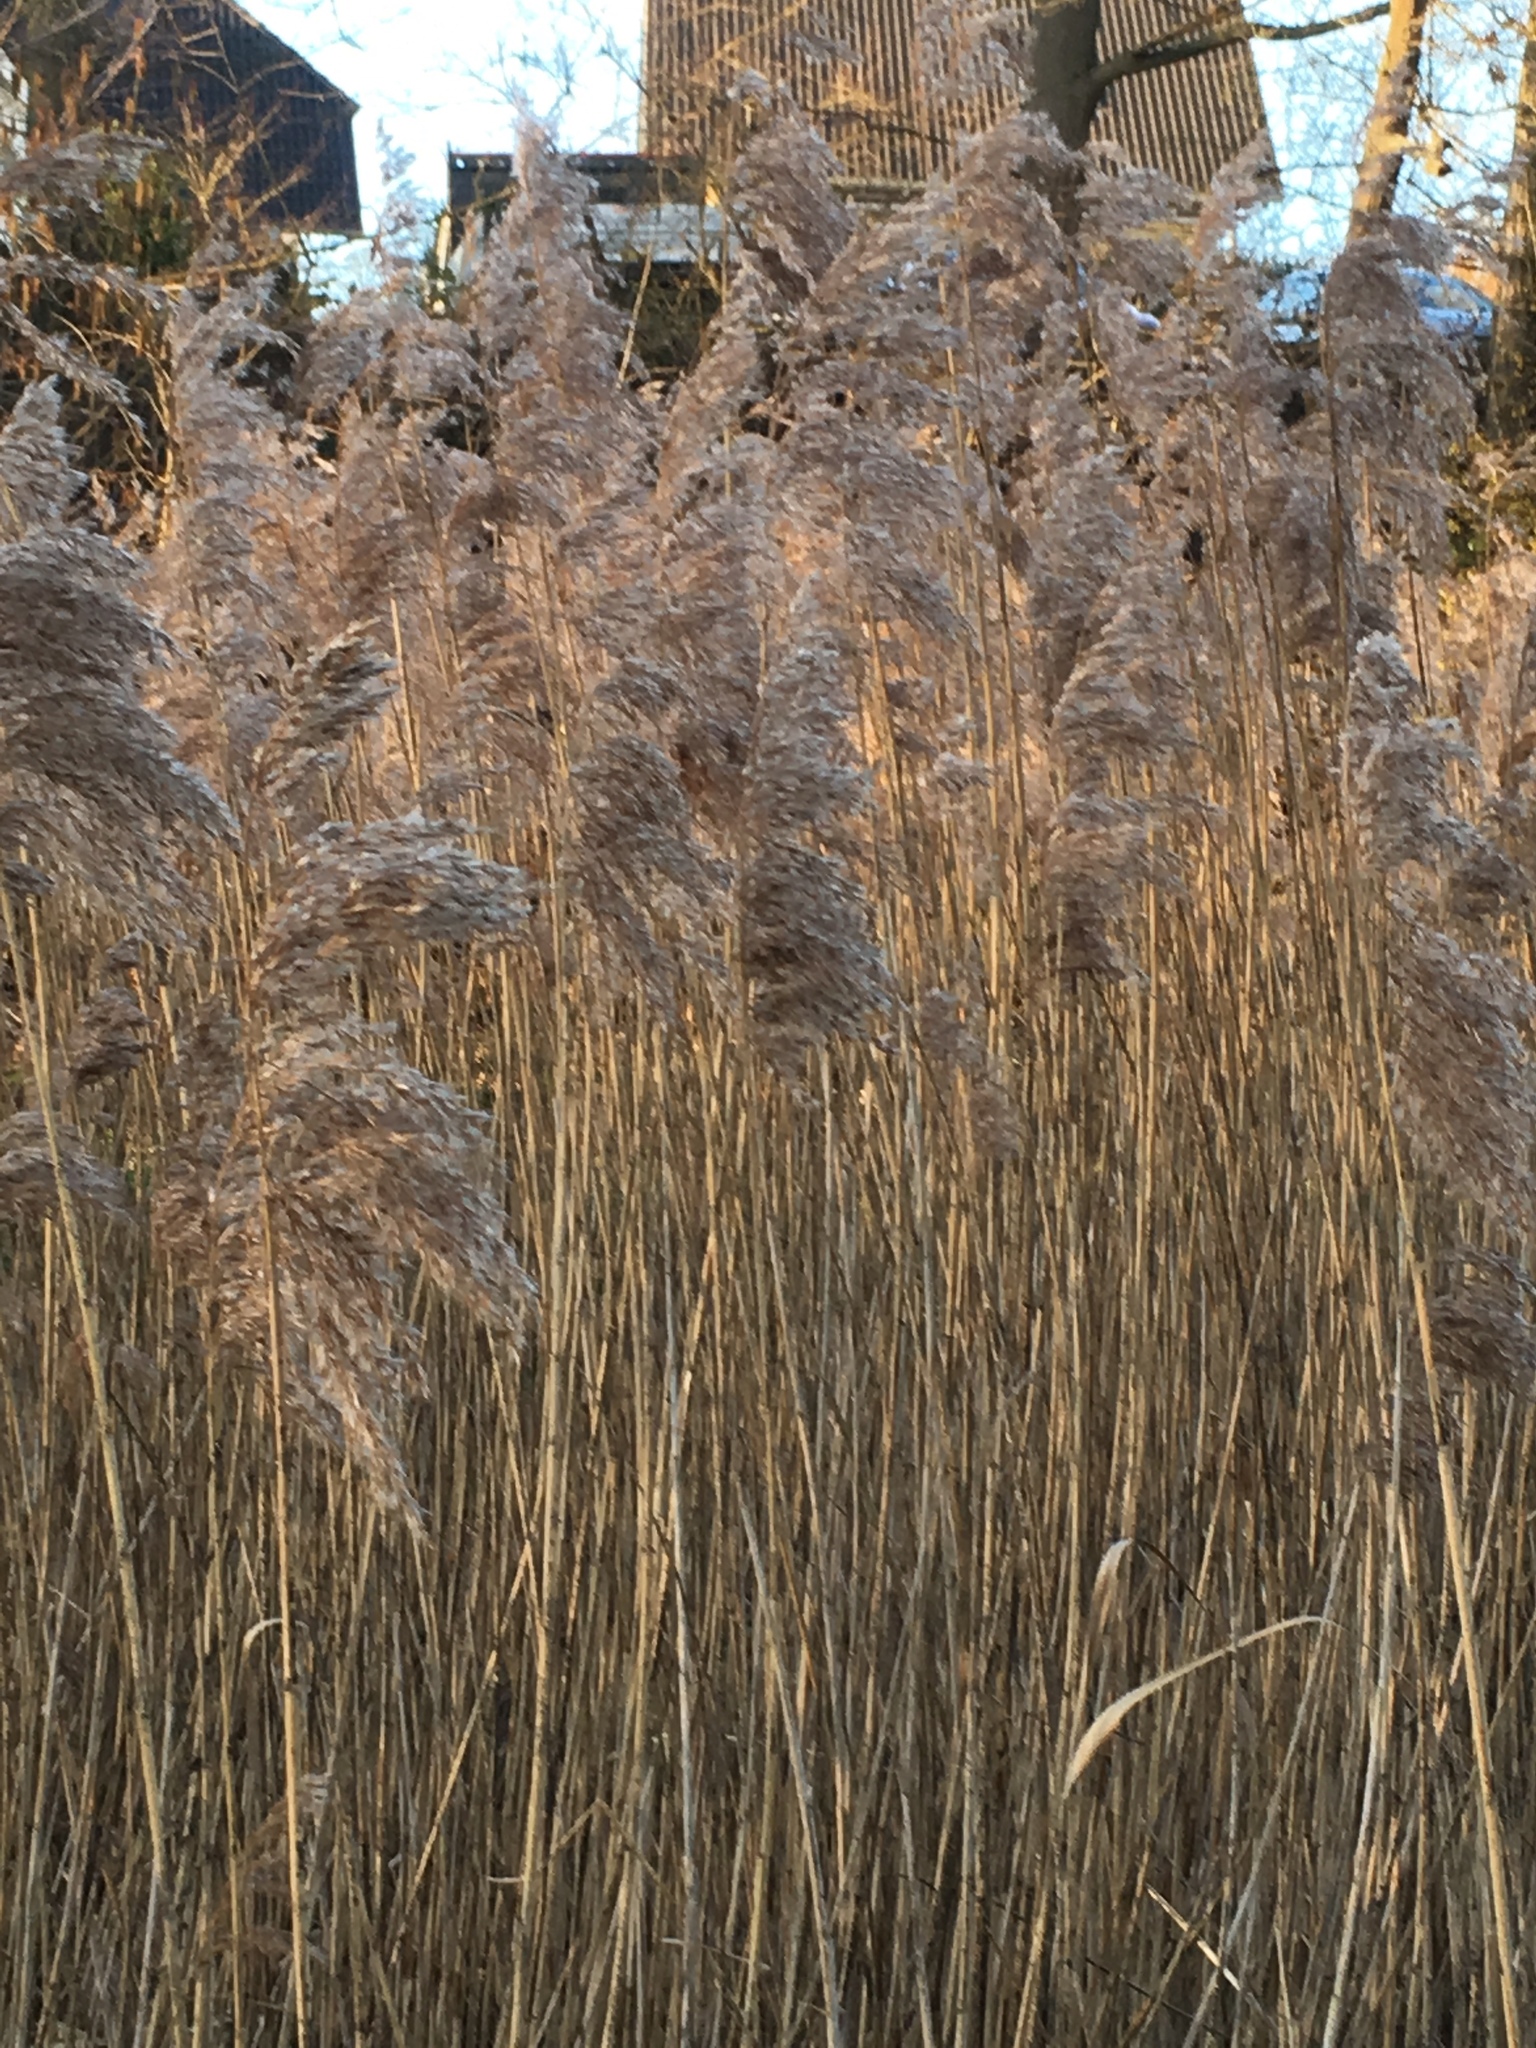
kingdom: Plantae
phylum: Tracheophyta
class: Liliopsida
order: Poales
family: Poaceae
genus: Phragmites
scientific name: Phragmites australis
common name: Common reed
